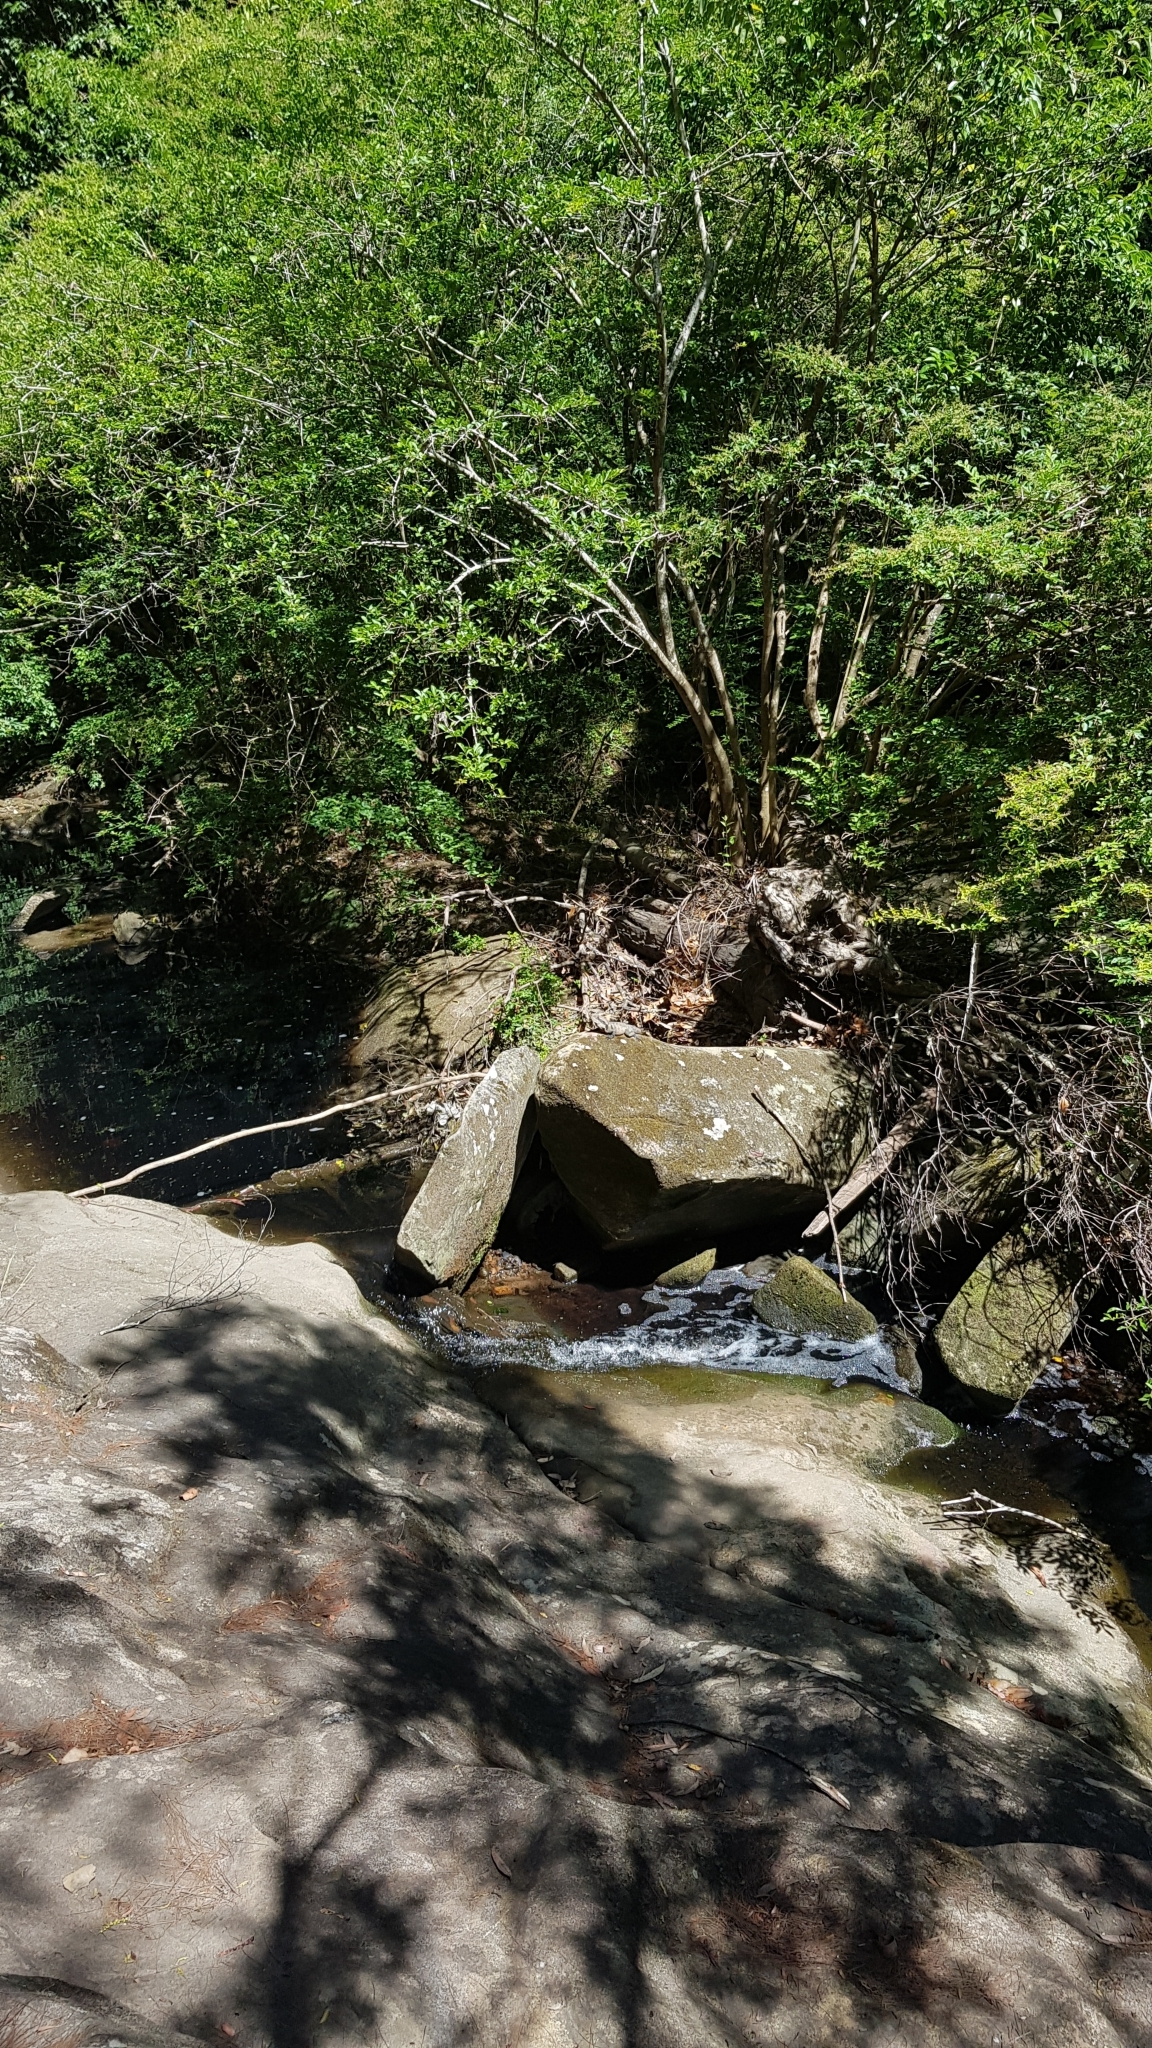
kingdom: Animalia
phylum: Chordata
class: Squamata
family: Agamidae
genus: Intellagama
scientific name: Intellagama lesueurii
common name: Eastern water dragon
